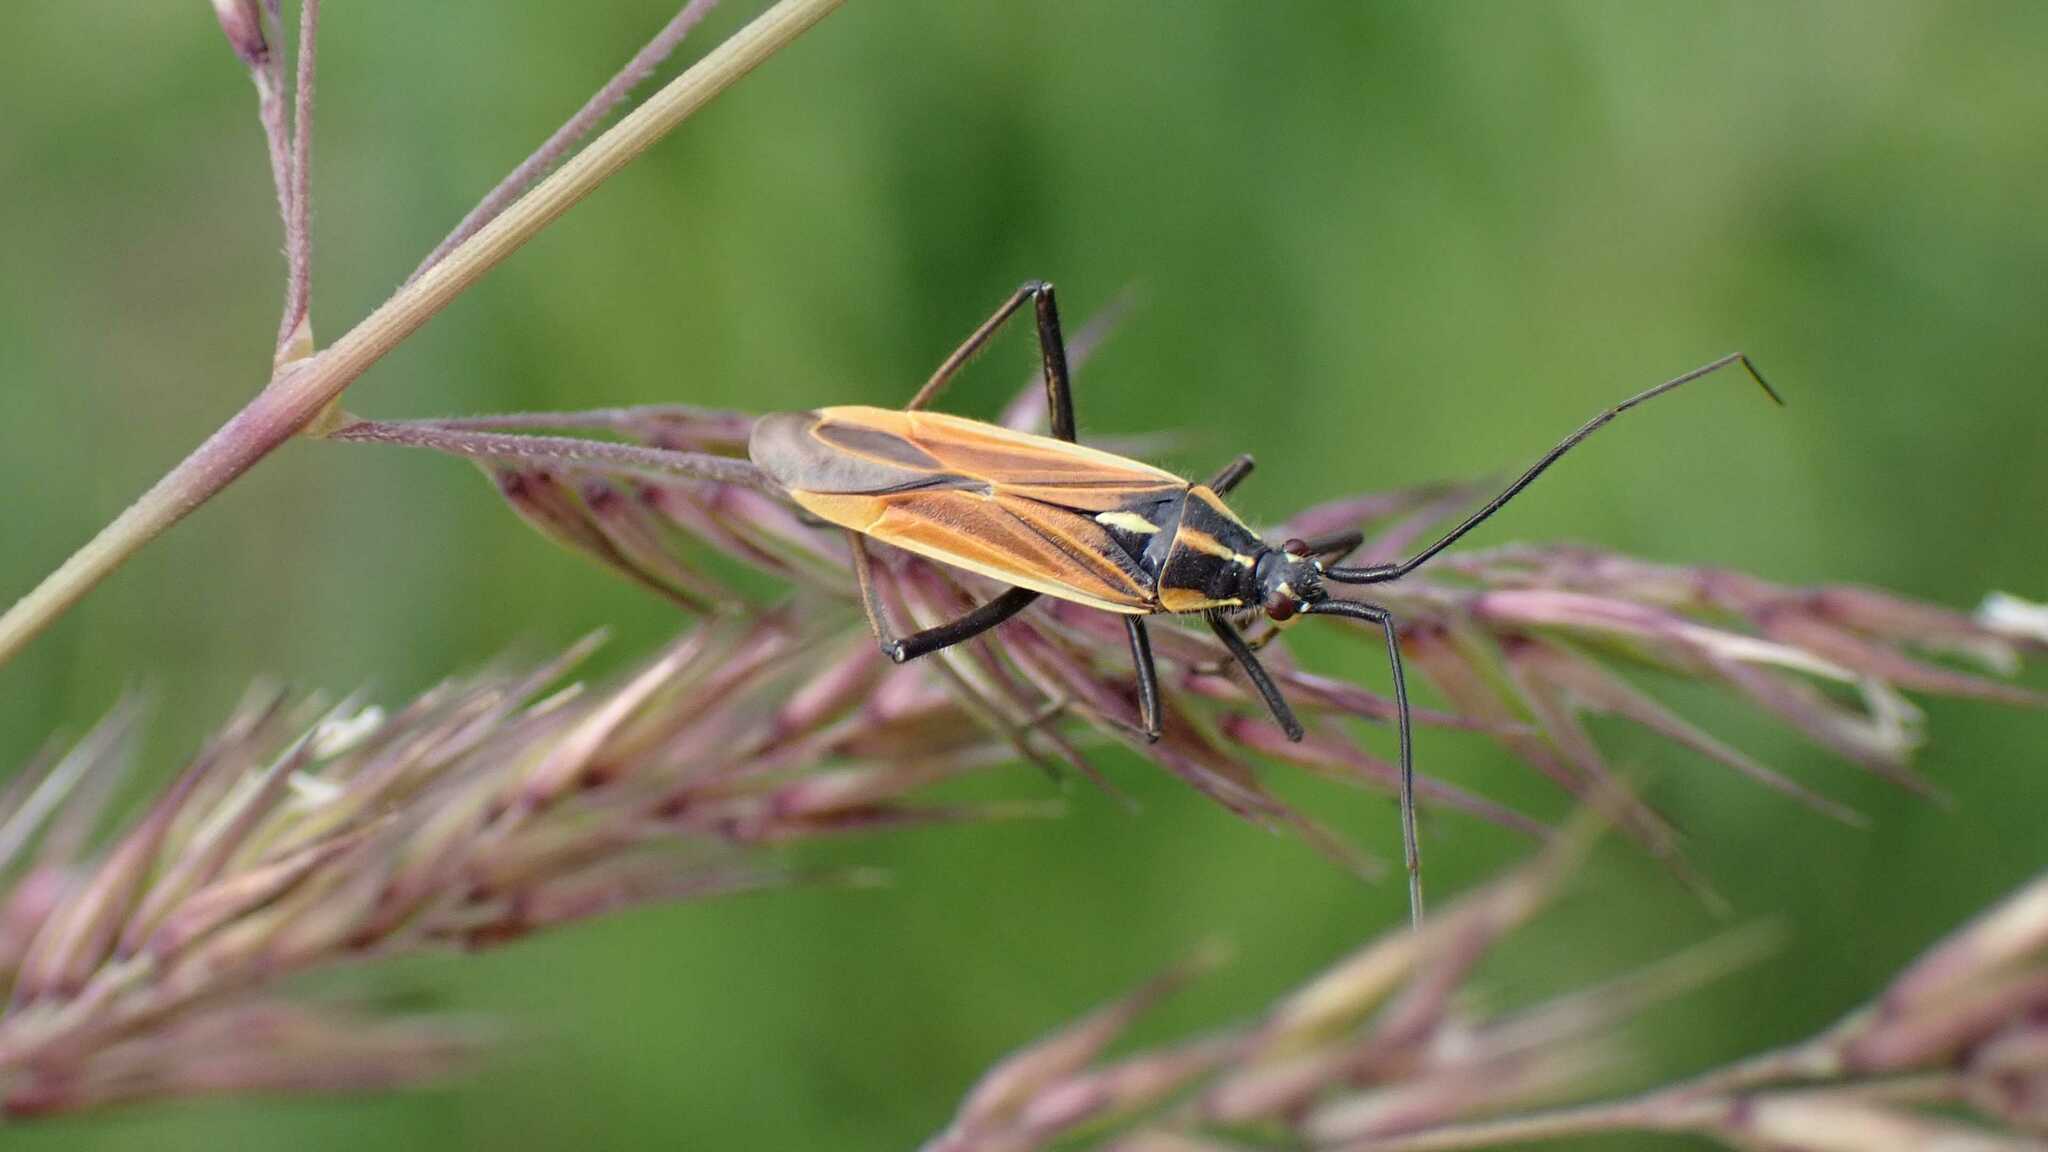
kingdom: Animalia
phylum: Arthropoda
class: Insecta
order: Hemiptera
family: Miridae
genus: Leptopterna
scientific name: Leptopterna dolabrata
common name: Meadow plant bug
